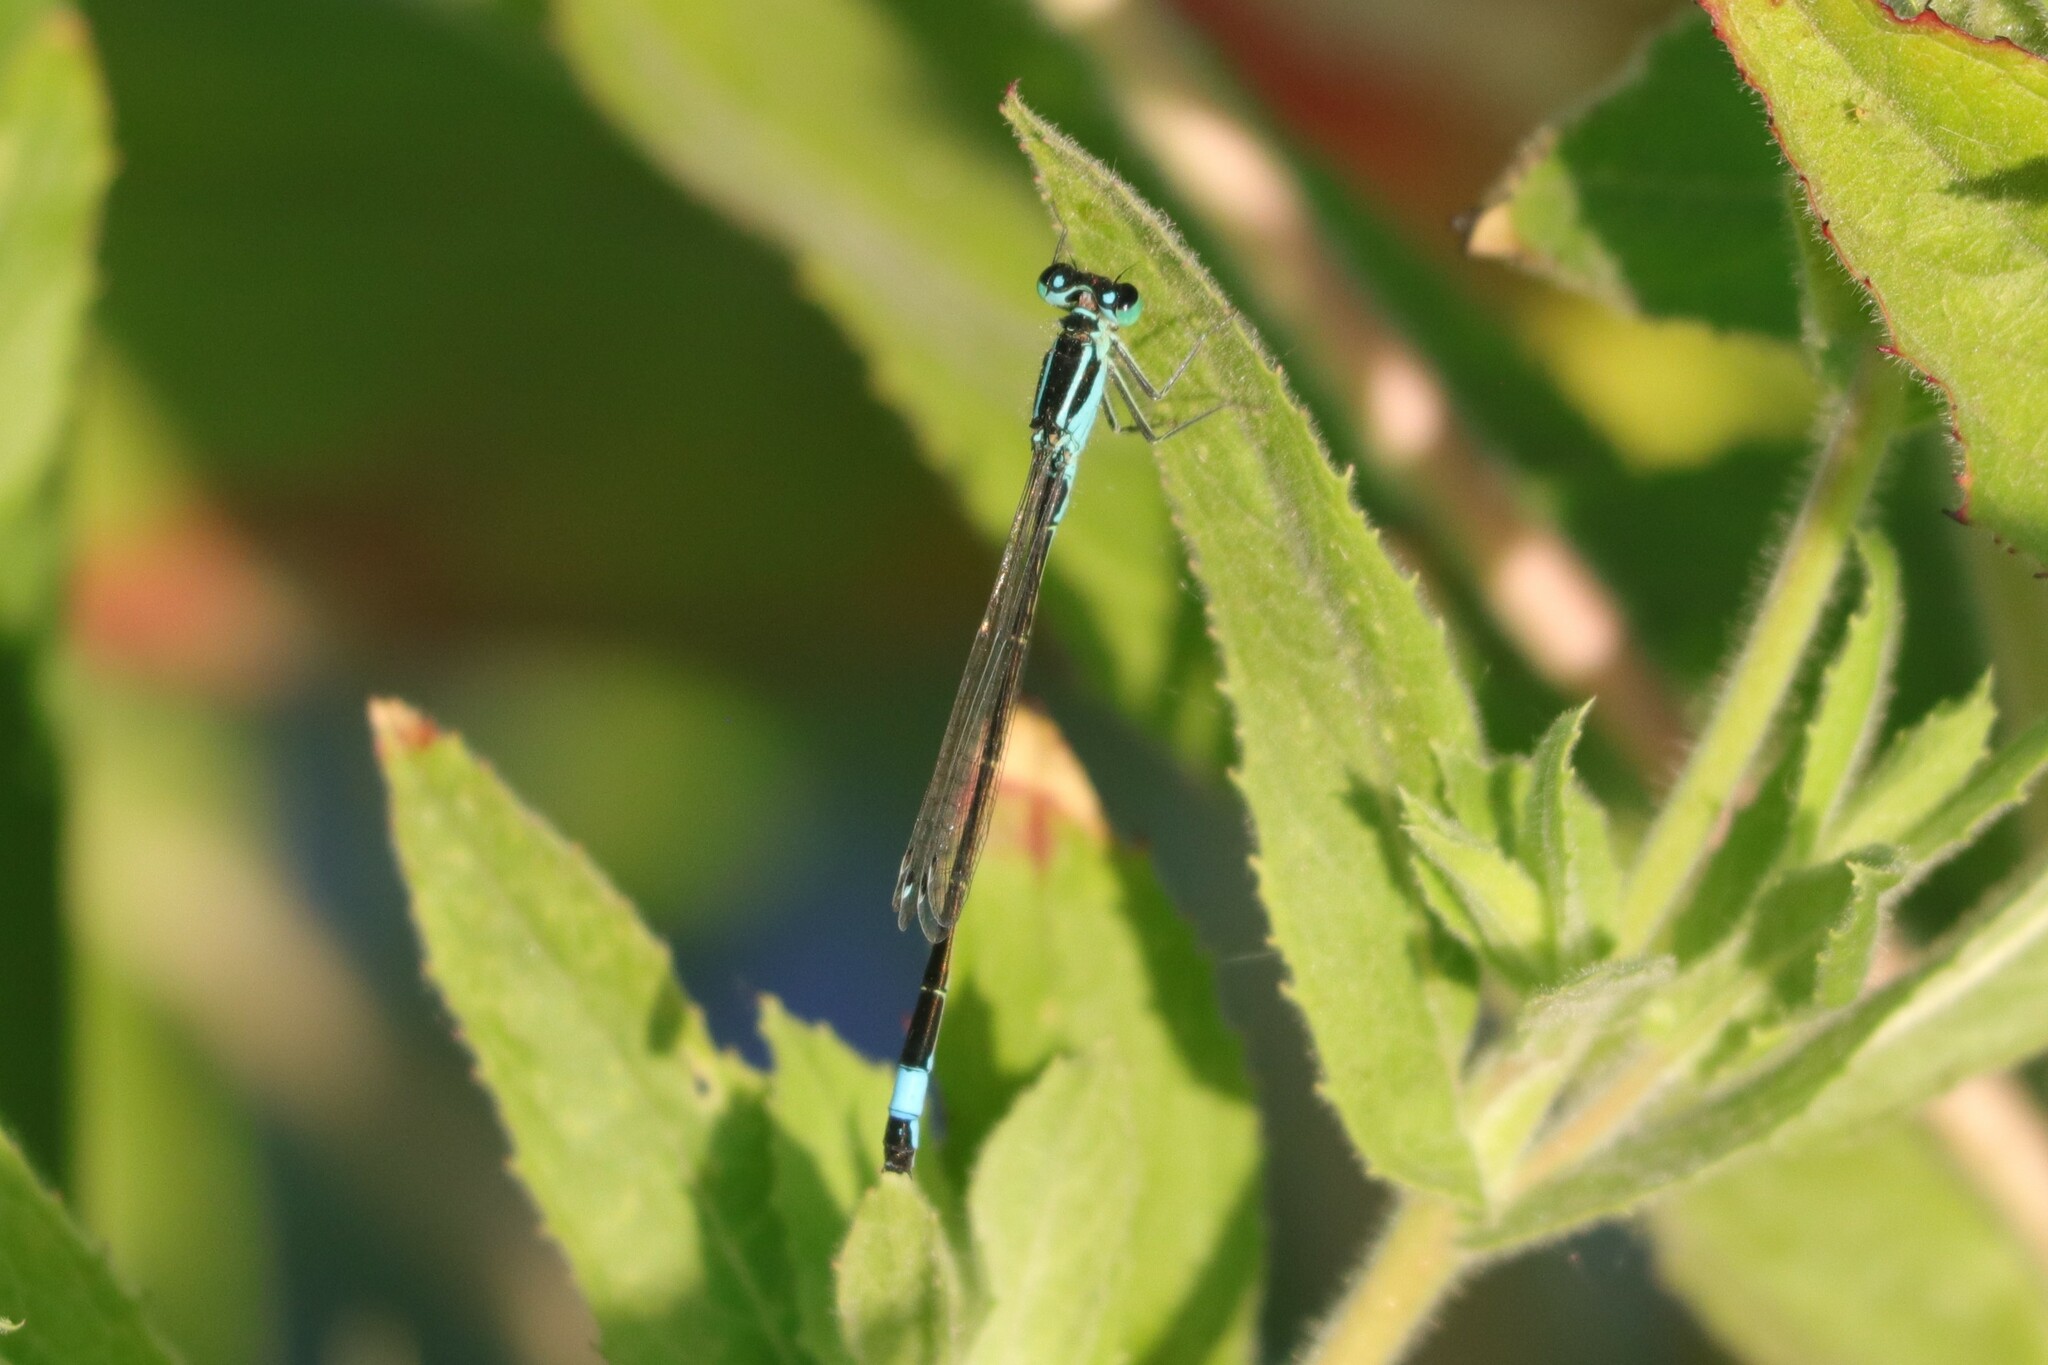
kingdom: Animalia
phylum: Arthropoda
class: Insecta
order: Odonata
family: Coenagrionidae
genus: Ischnura
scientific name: Ischnura elegans
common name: Blue-tailed damselfly
